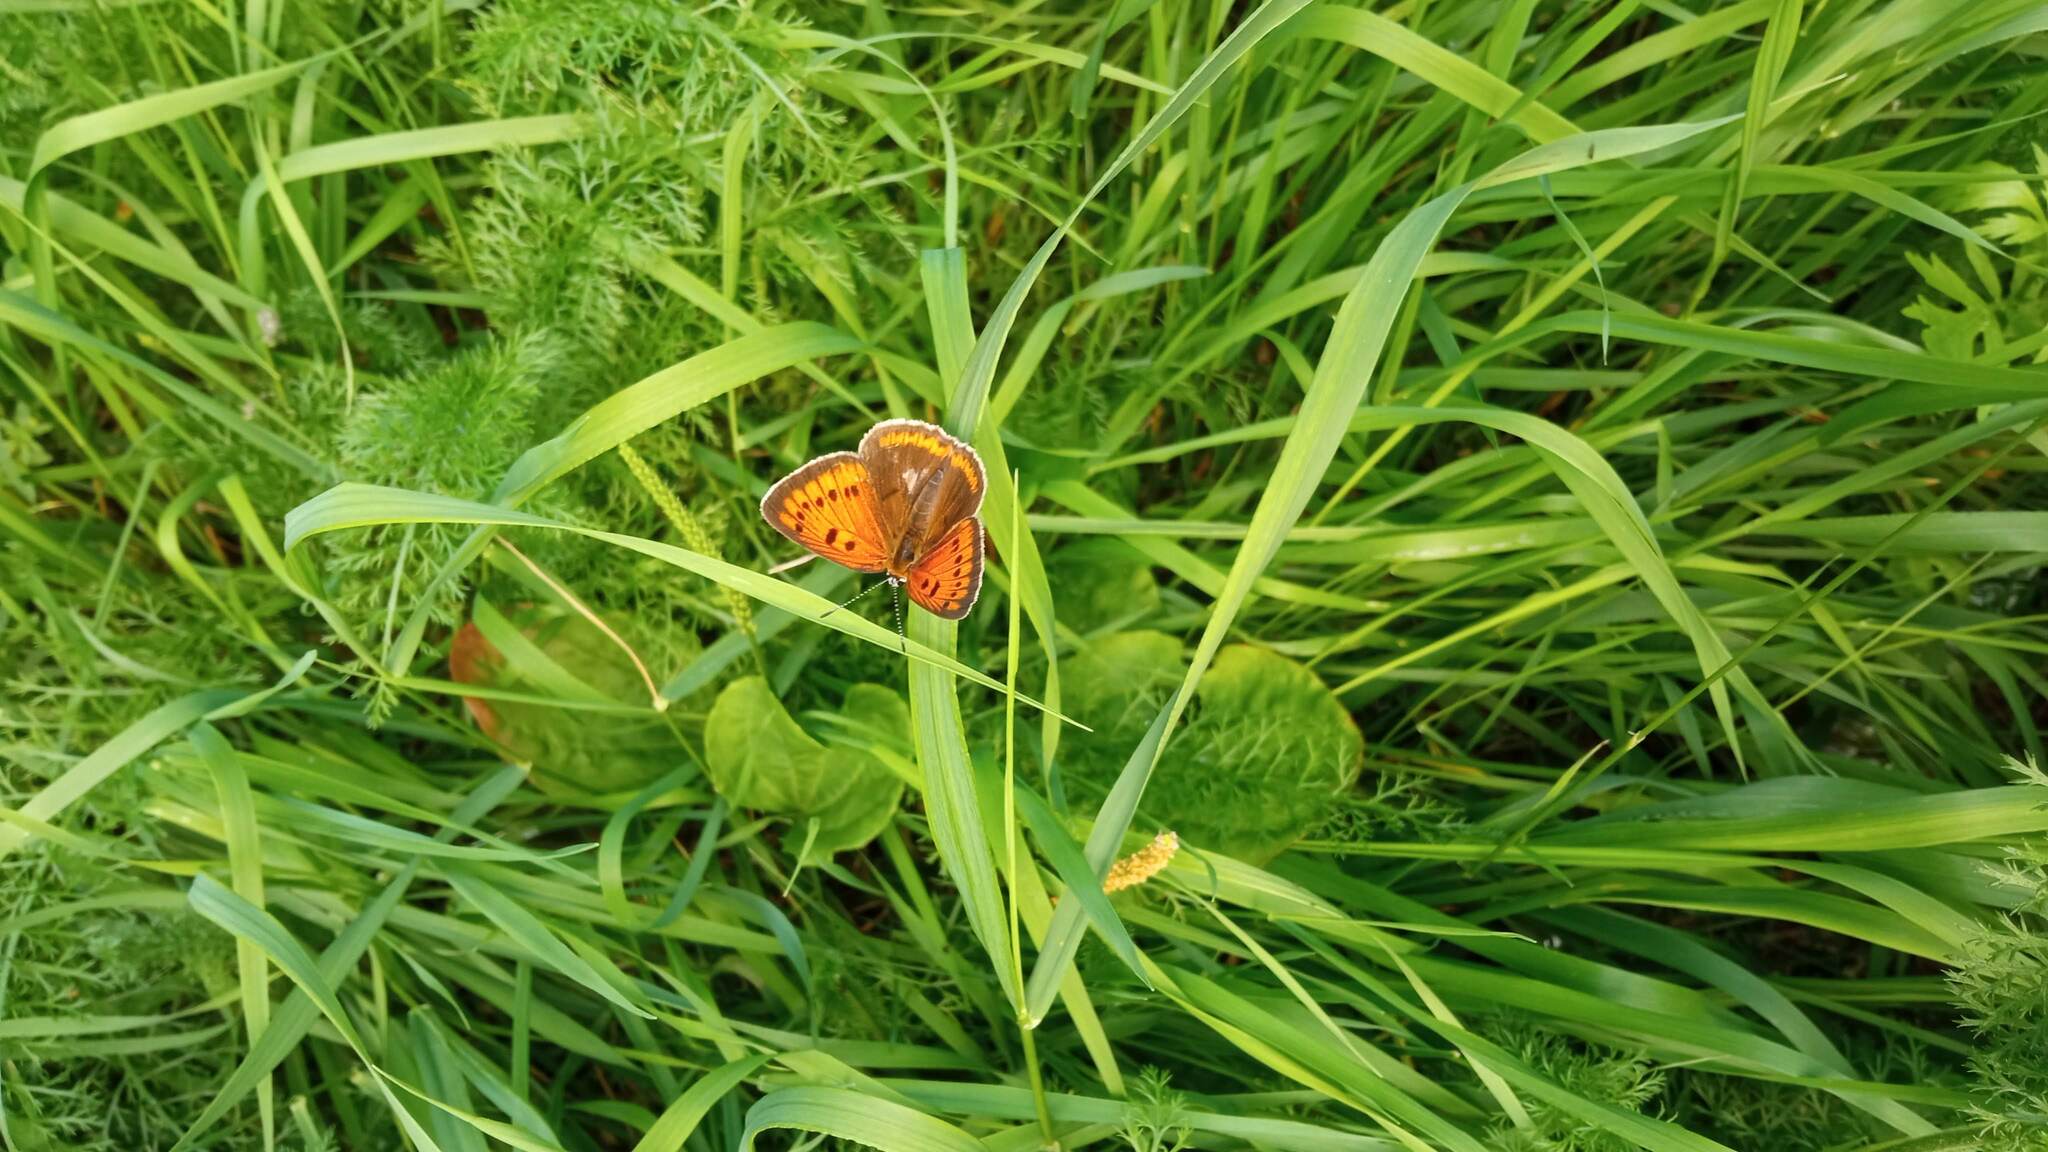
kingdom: Animalia
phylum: Arthropoda
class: Insecta
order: Lepidoptera
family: Lycaenidae
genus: Lycaena
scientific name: Lycaena dispar
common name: Large copper
